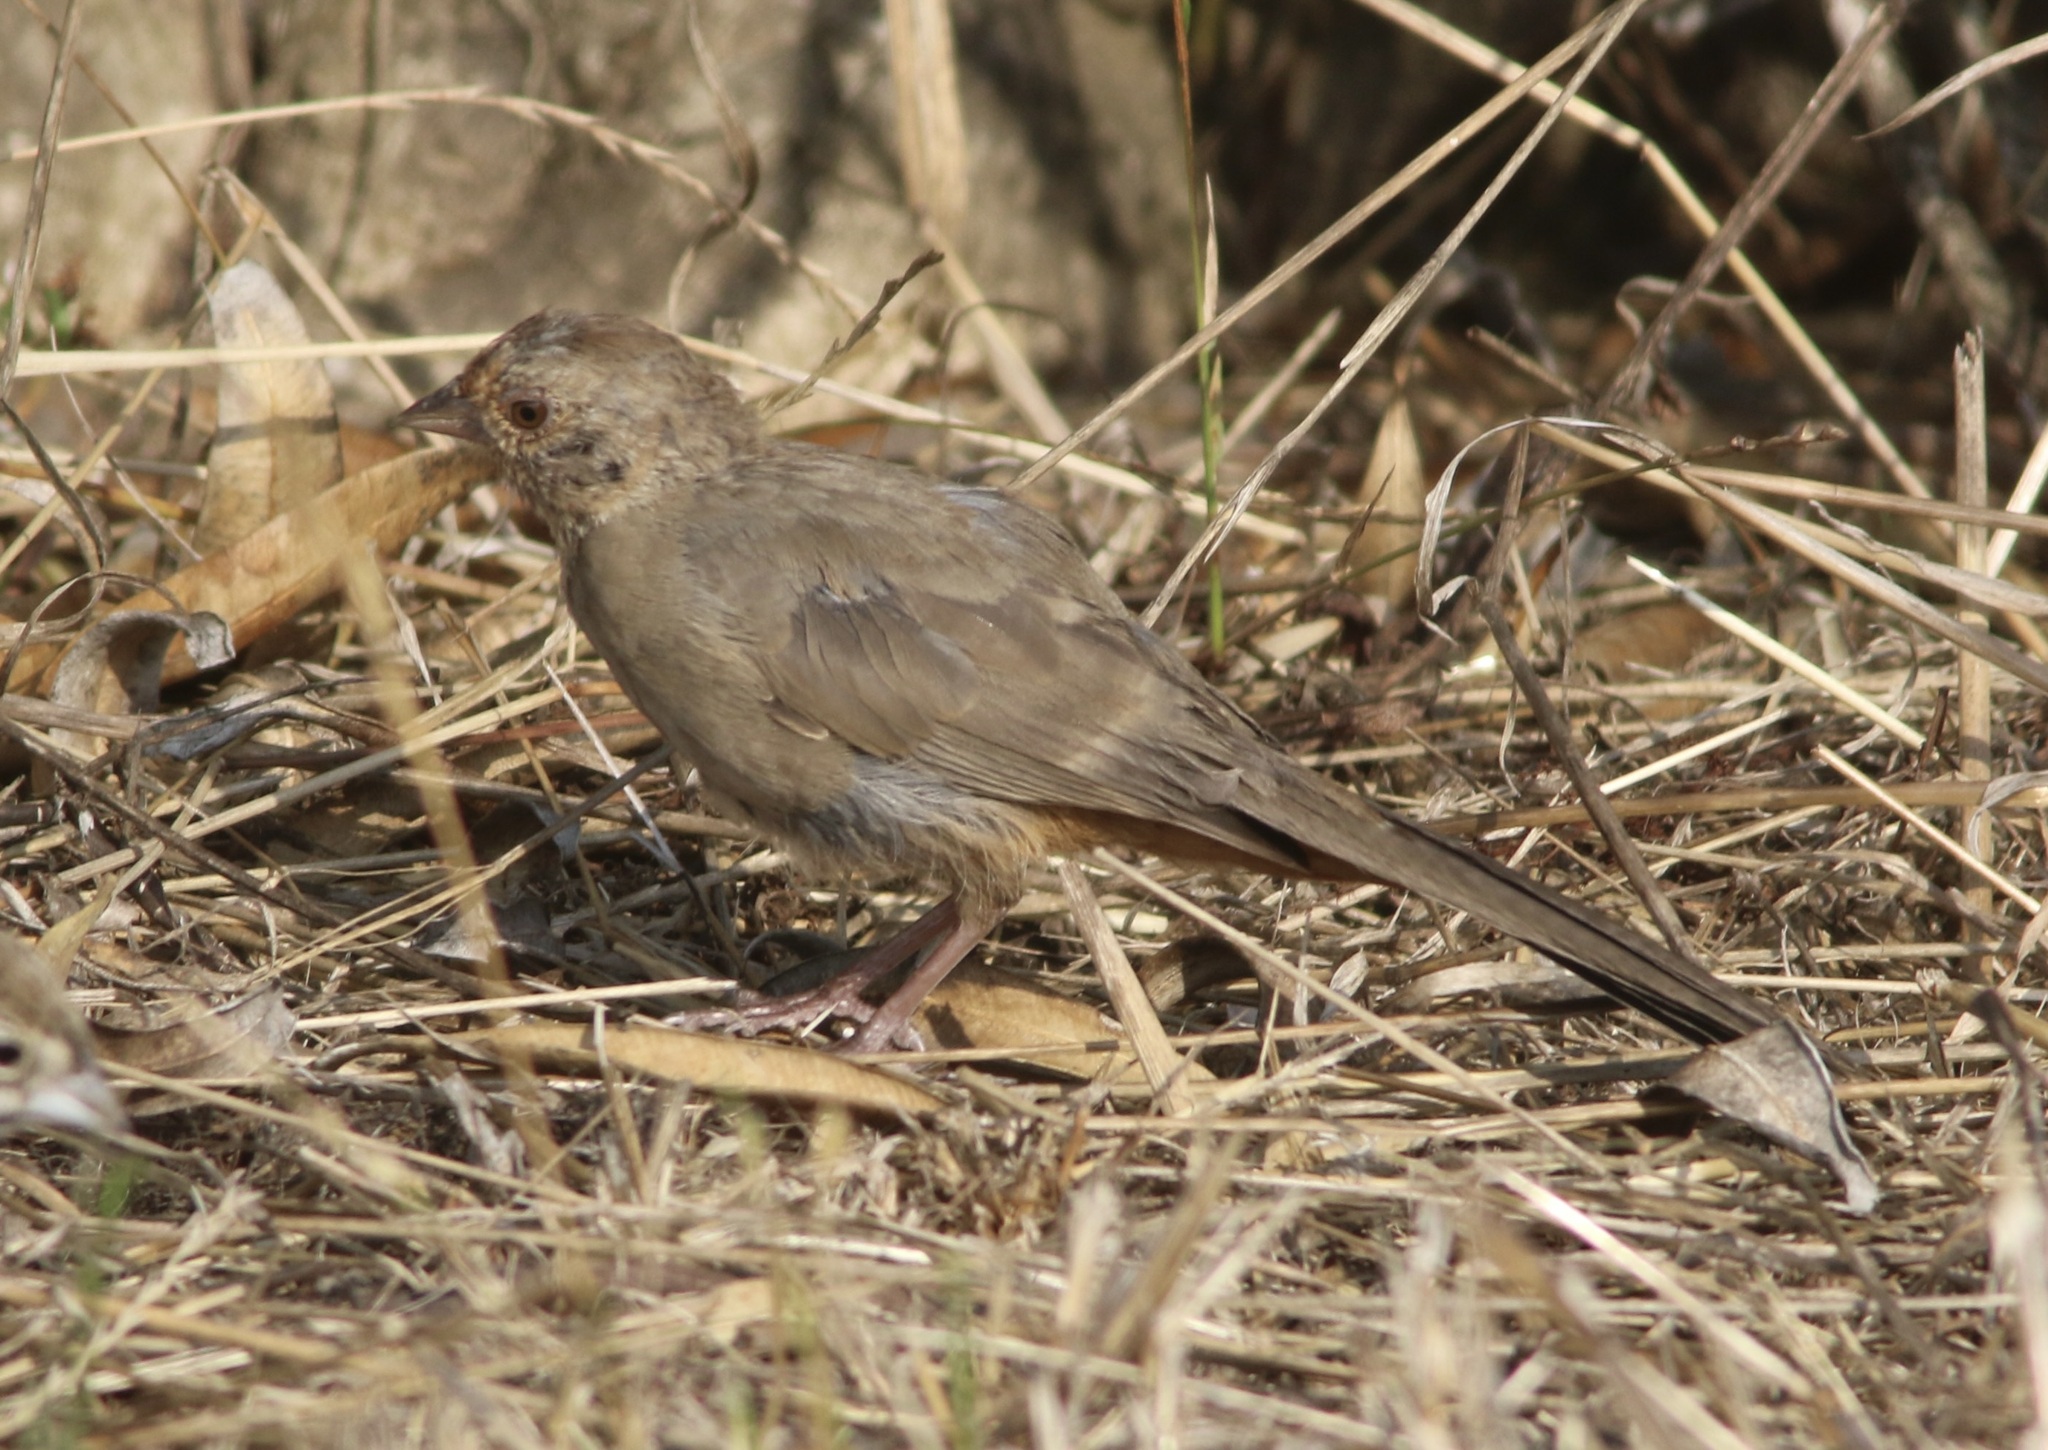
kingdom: Animalia
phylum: Chordata
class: Aves
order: Passeriformes
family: Passerellidae
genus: Melozone
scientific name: Melozone crissalis
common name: California towhee
